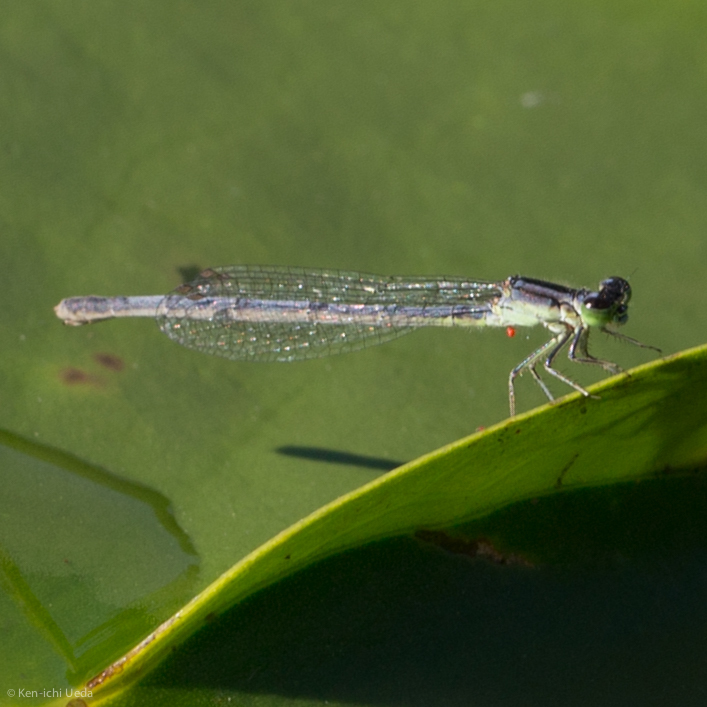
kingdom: Animalia
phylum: Arthropoda
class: Insecta
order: Odonata
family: Coenagrionidae
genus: Ischnura
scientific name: Ischnura verticalis
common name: Eastern forktail
